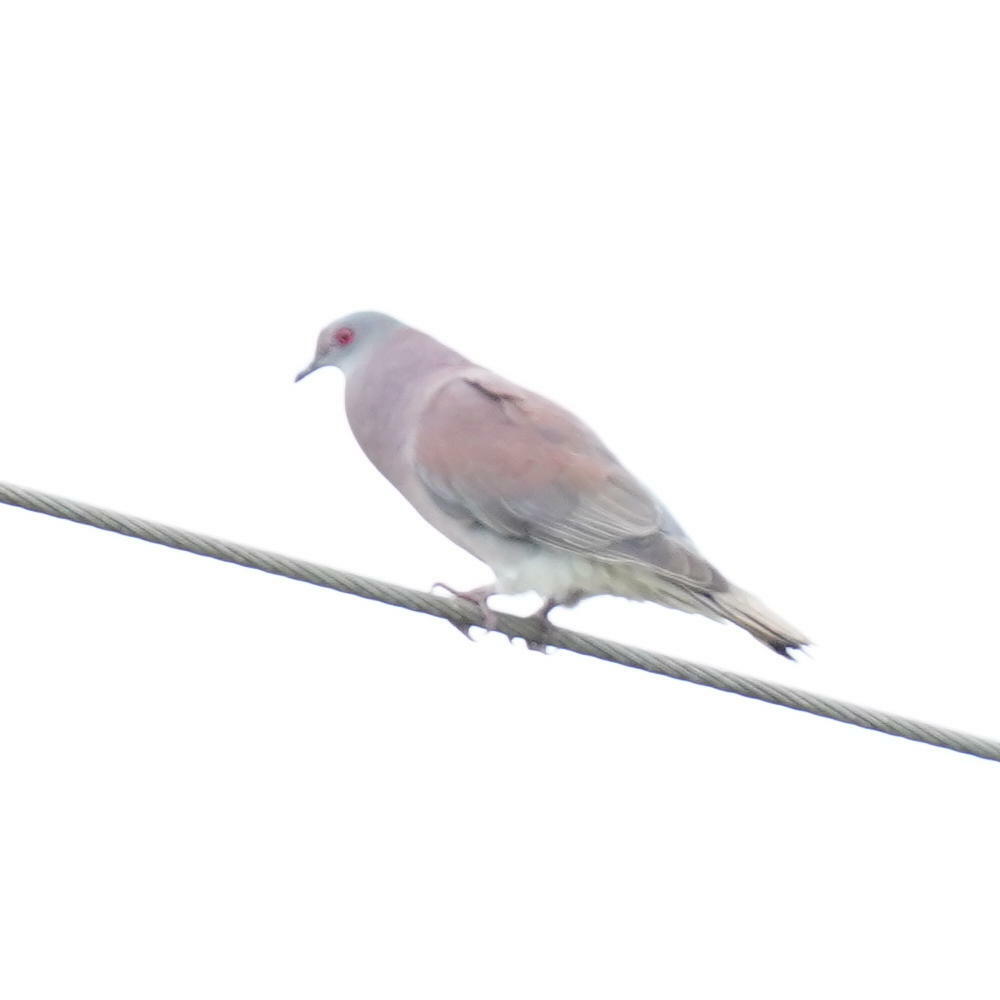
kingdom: Animalia
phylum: Chordata
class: Aves
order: Columbiformes
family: Columbidae
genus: Patagioenas
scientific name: Patagioenas cayennensis
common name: Pale-vented pigeon
